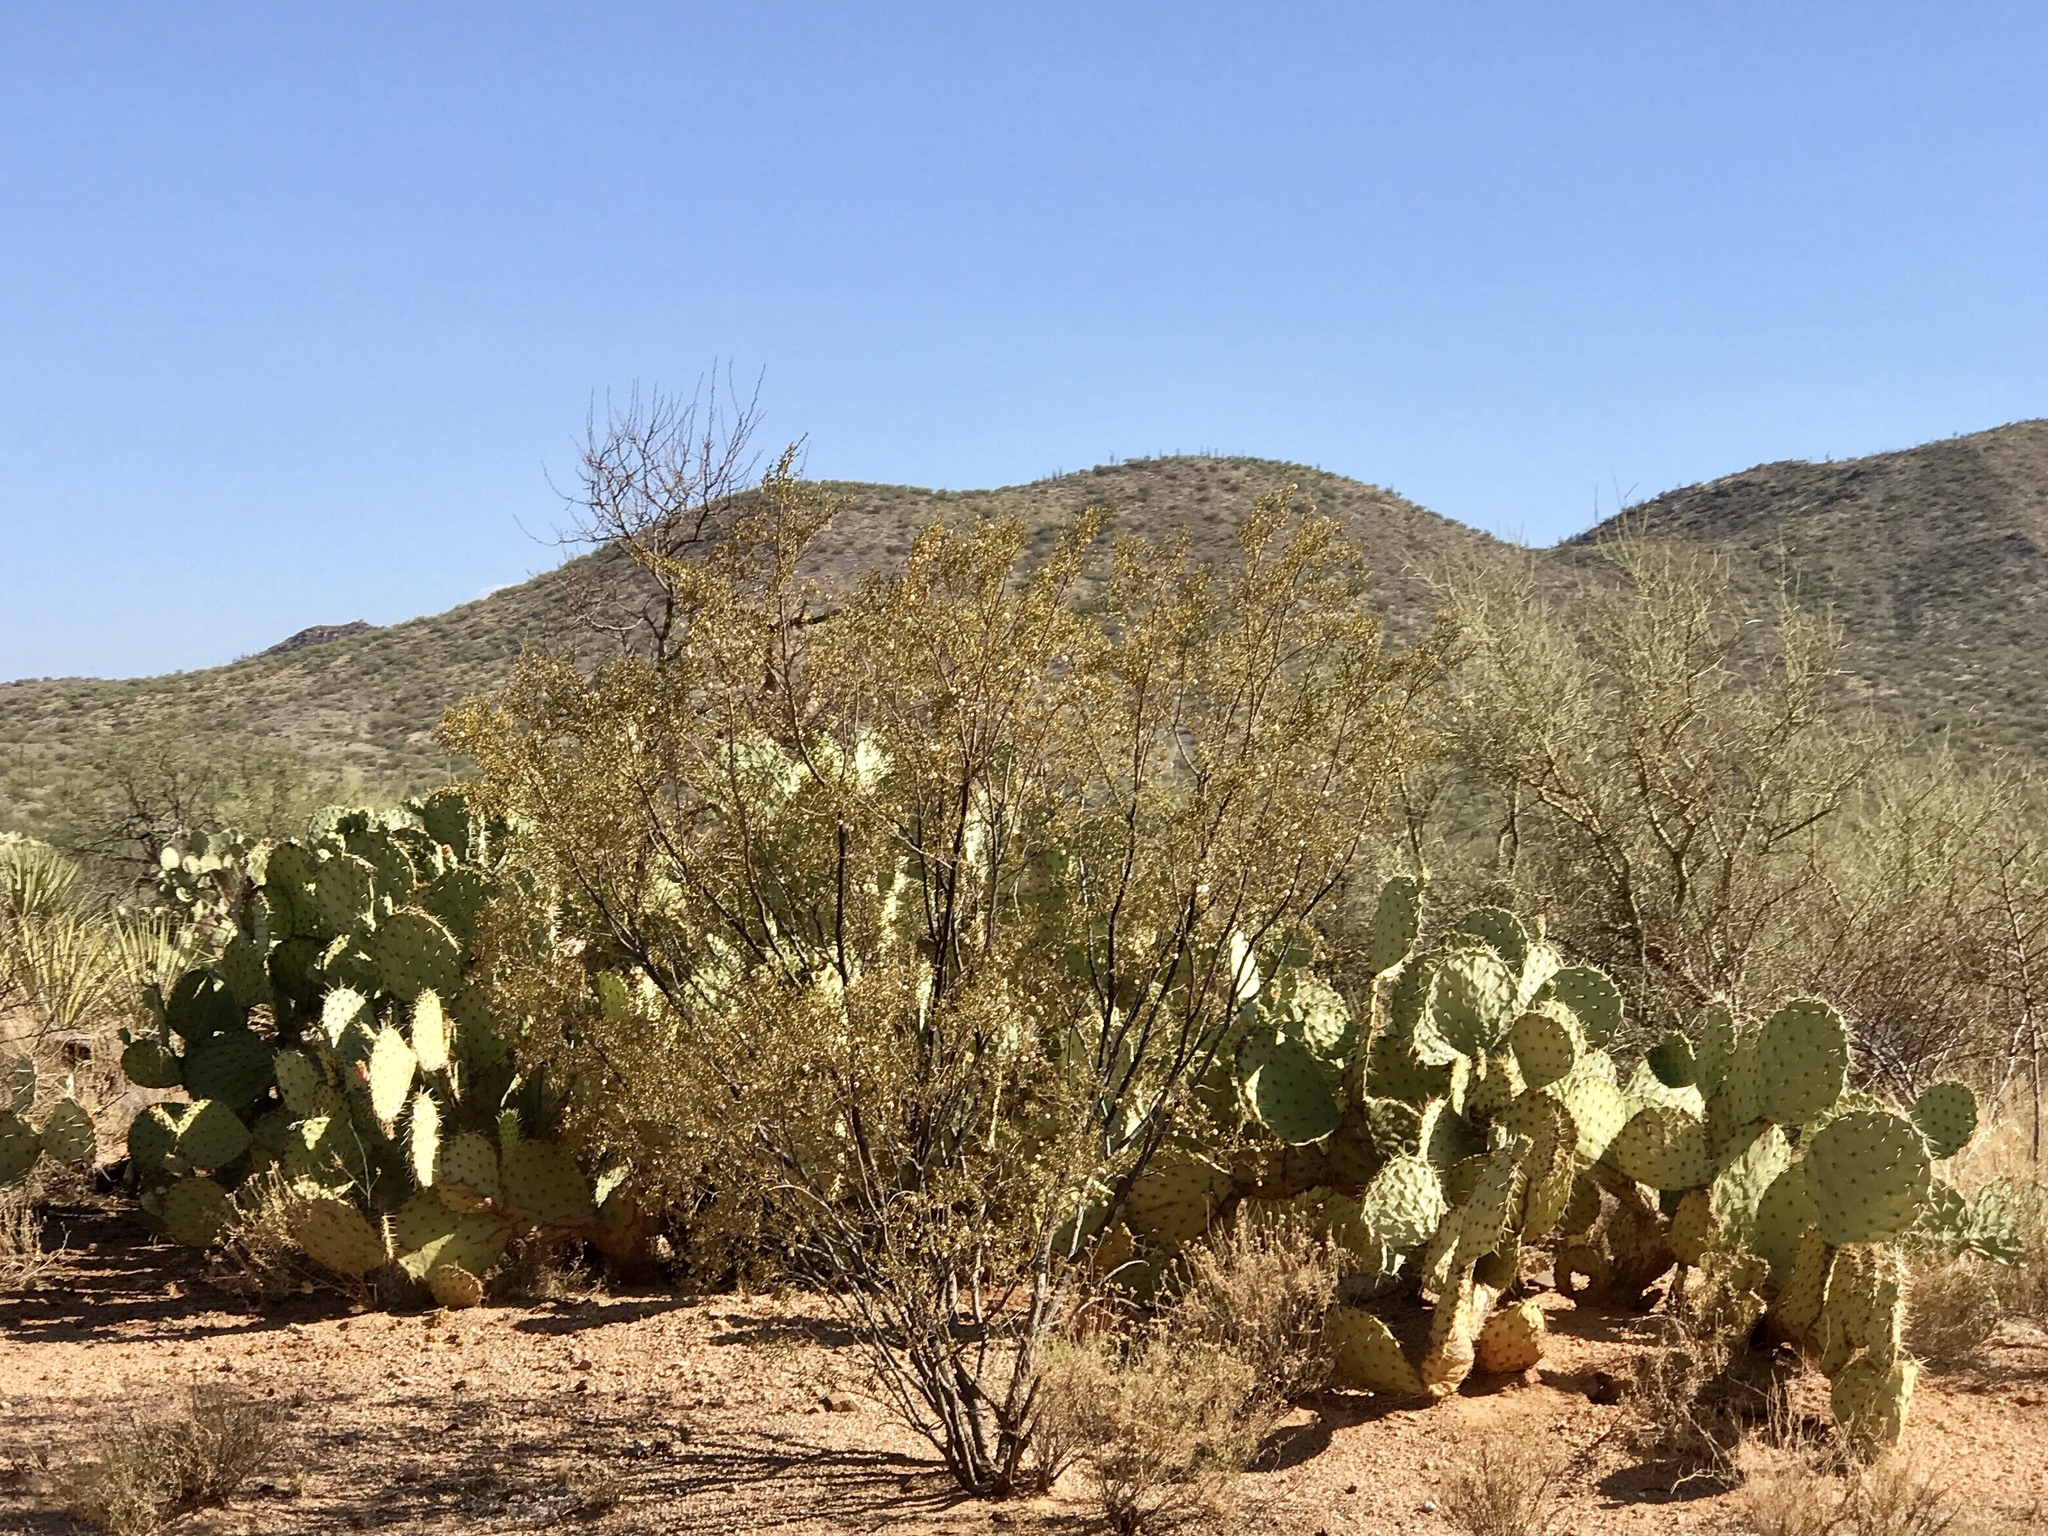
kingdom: Plantae
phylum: Tracheophyta
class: Magnoliopsida
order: Zygophyllales
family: Zygophyllaceae
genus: Larrea
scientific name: Larrea tridentata
